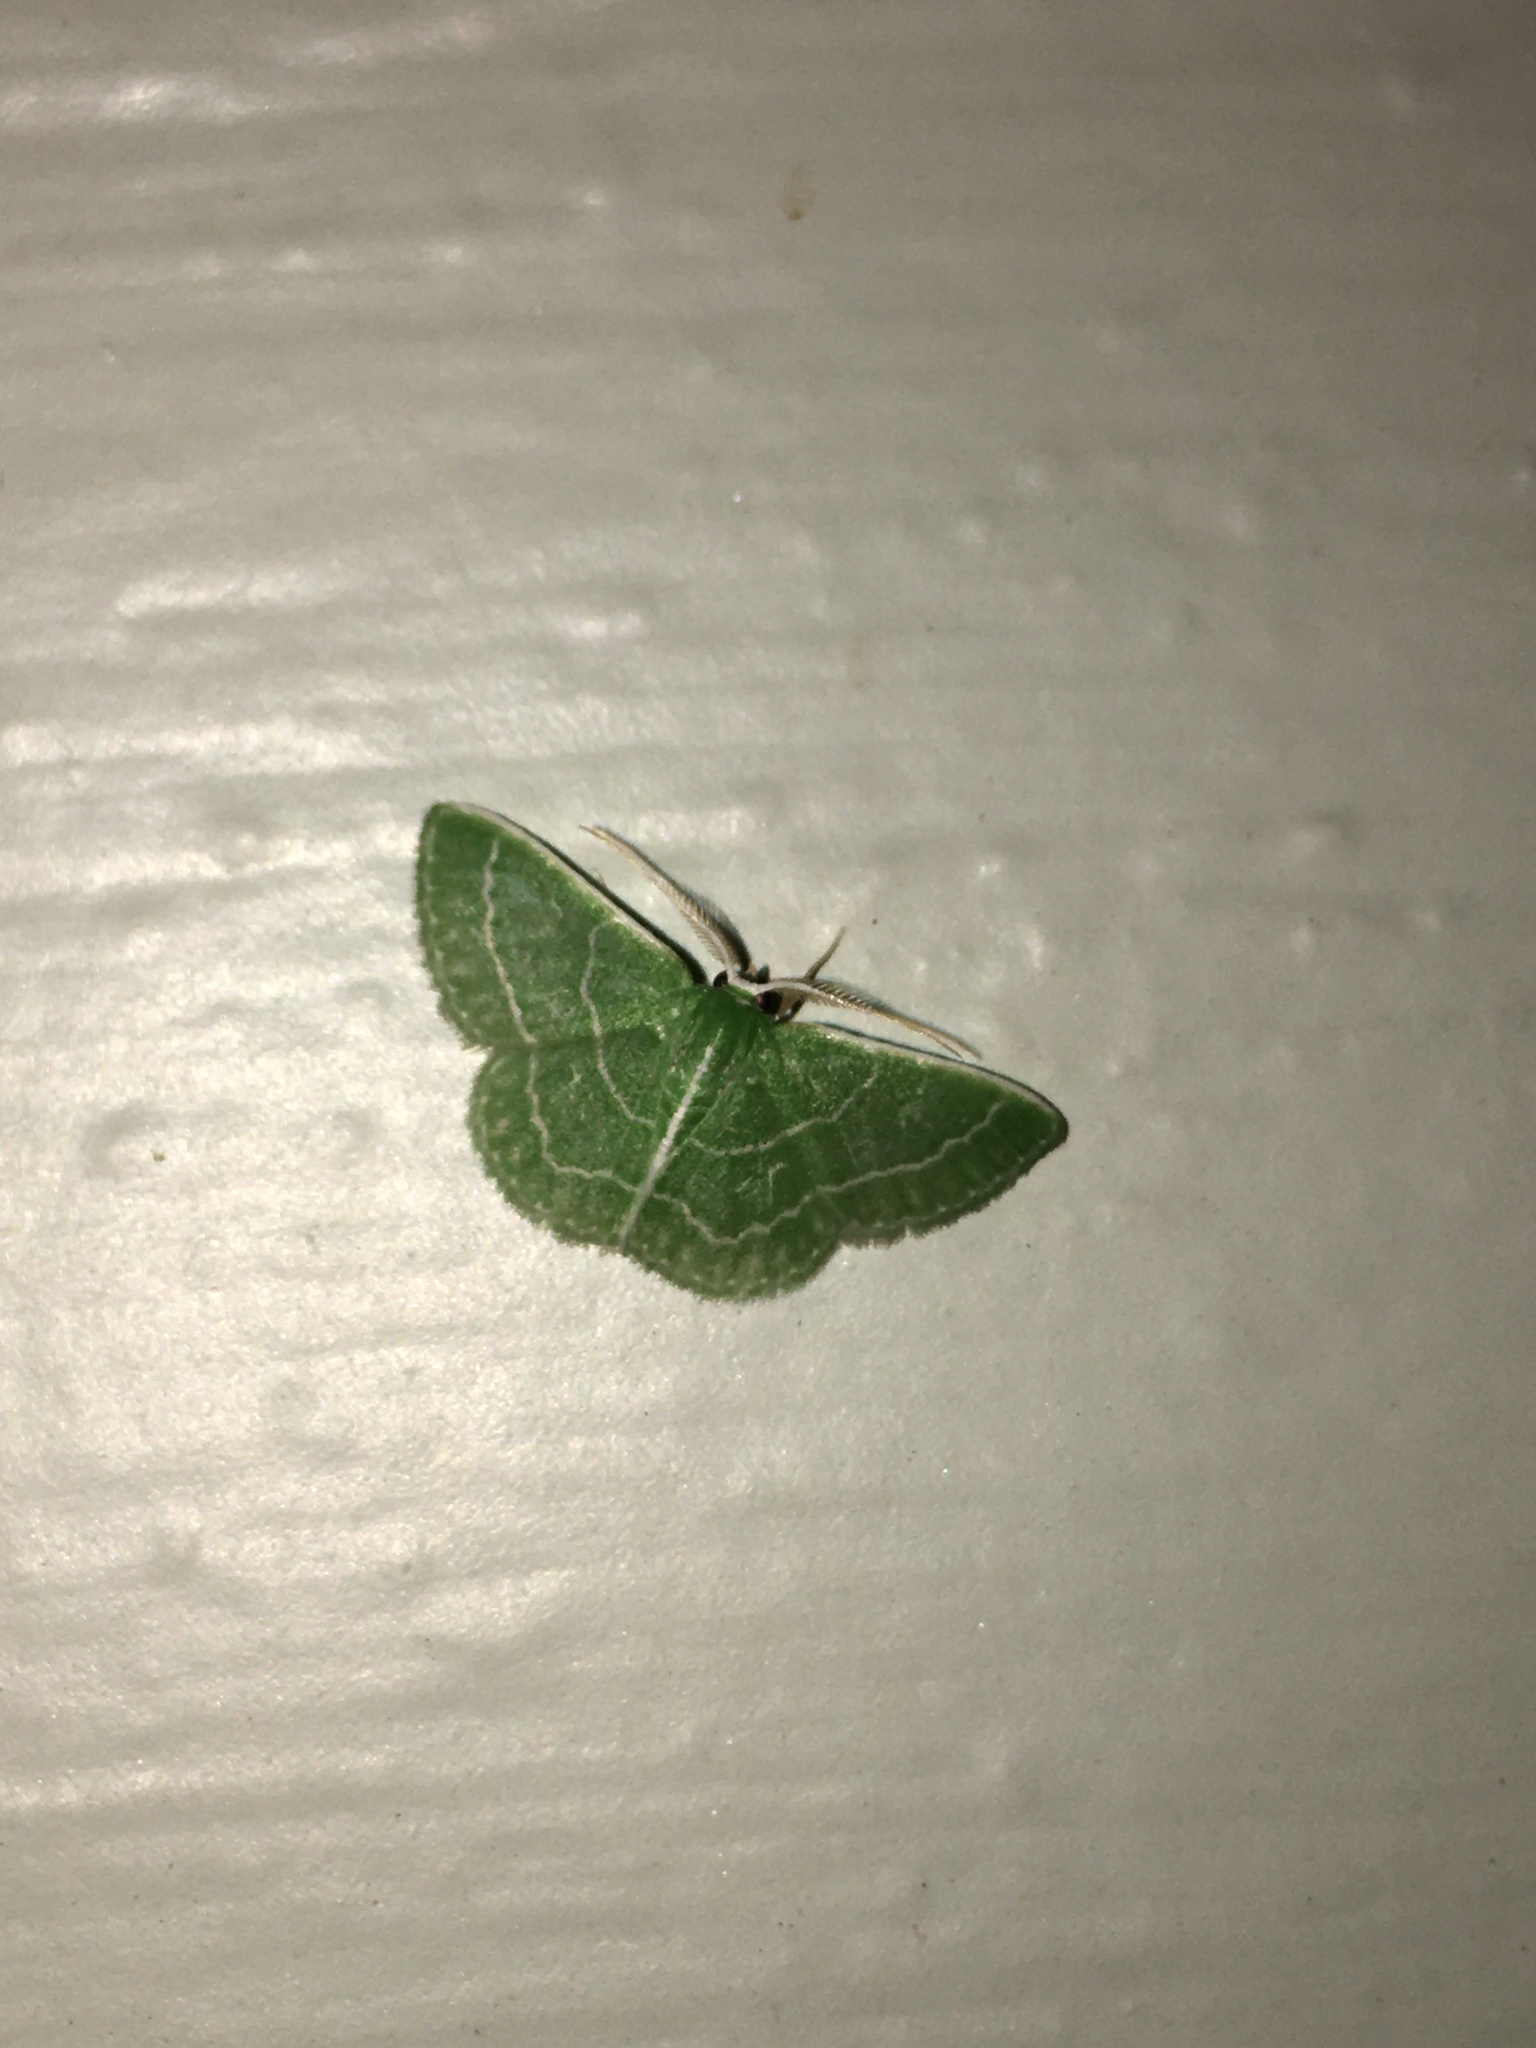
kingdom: Animalia
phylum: Arthropoda
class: Insecta
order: Lepidoptera
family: Geometridae
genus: Synchlora
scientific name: Synchlora aerata
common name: Wavy-lined emerald
